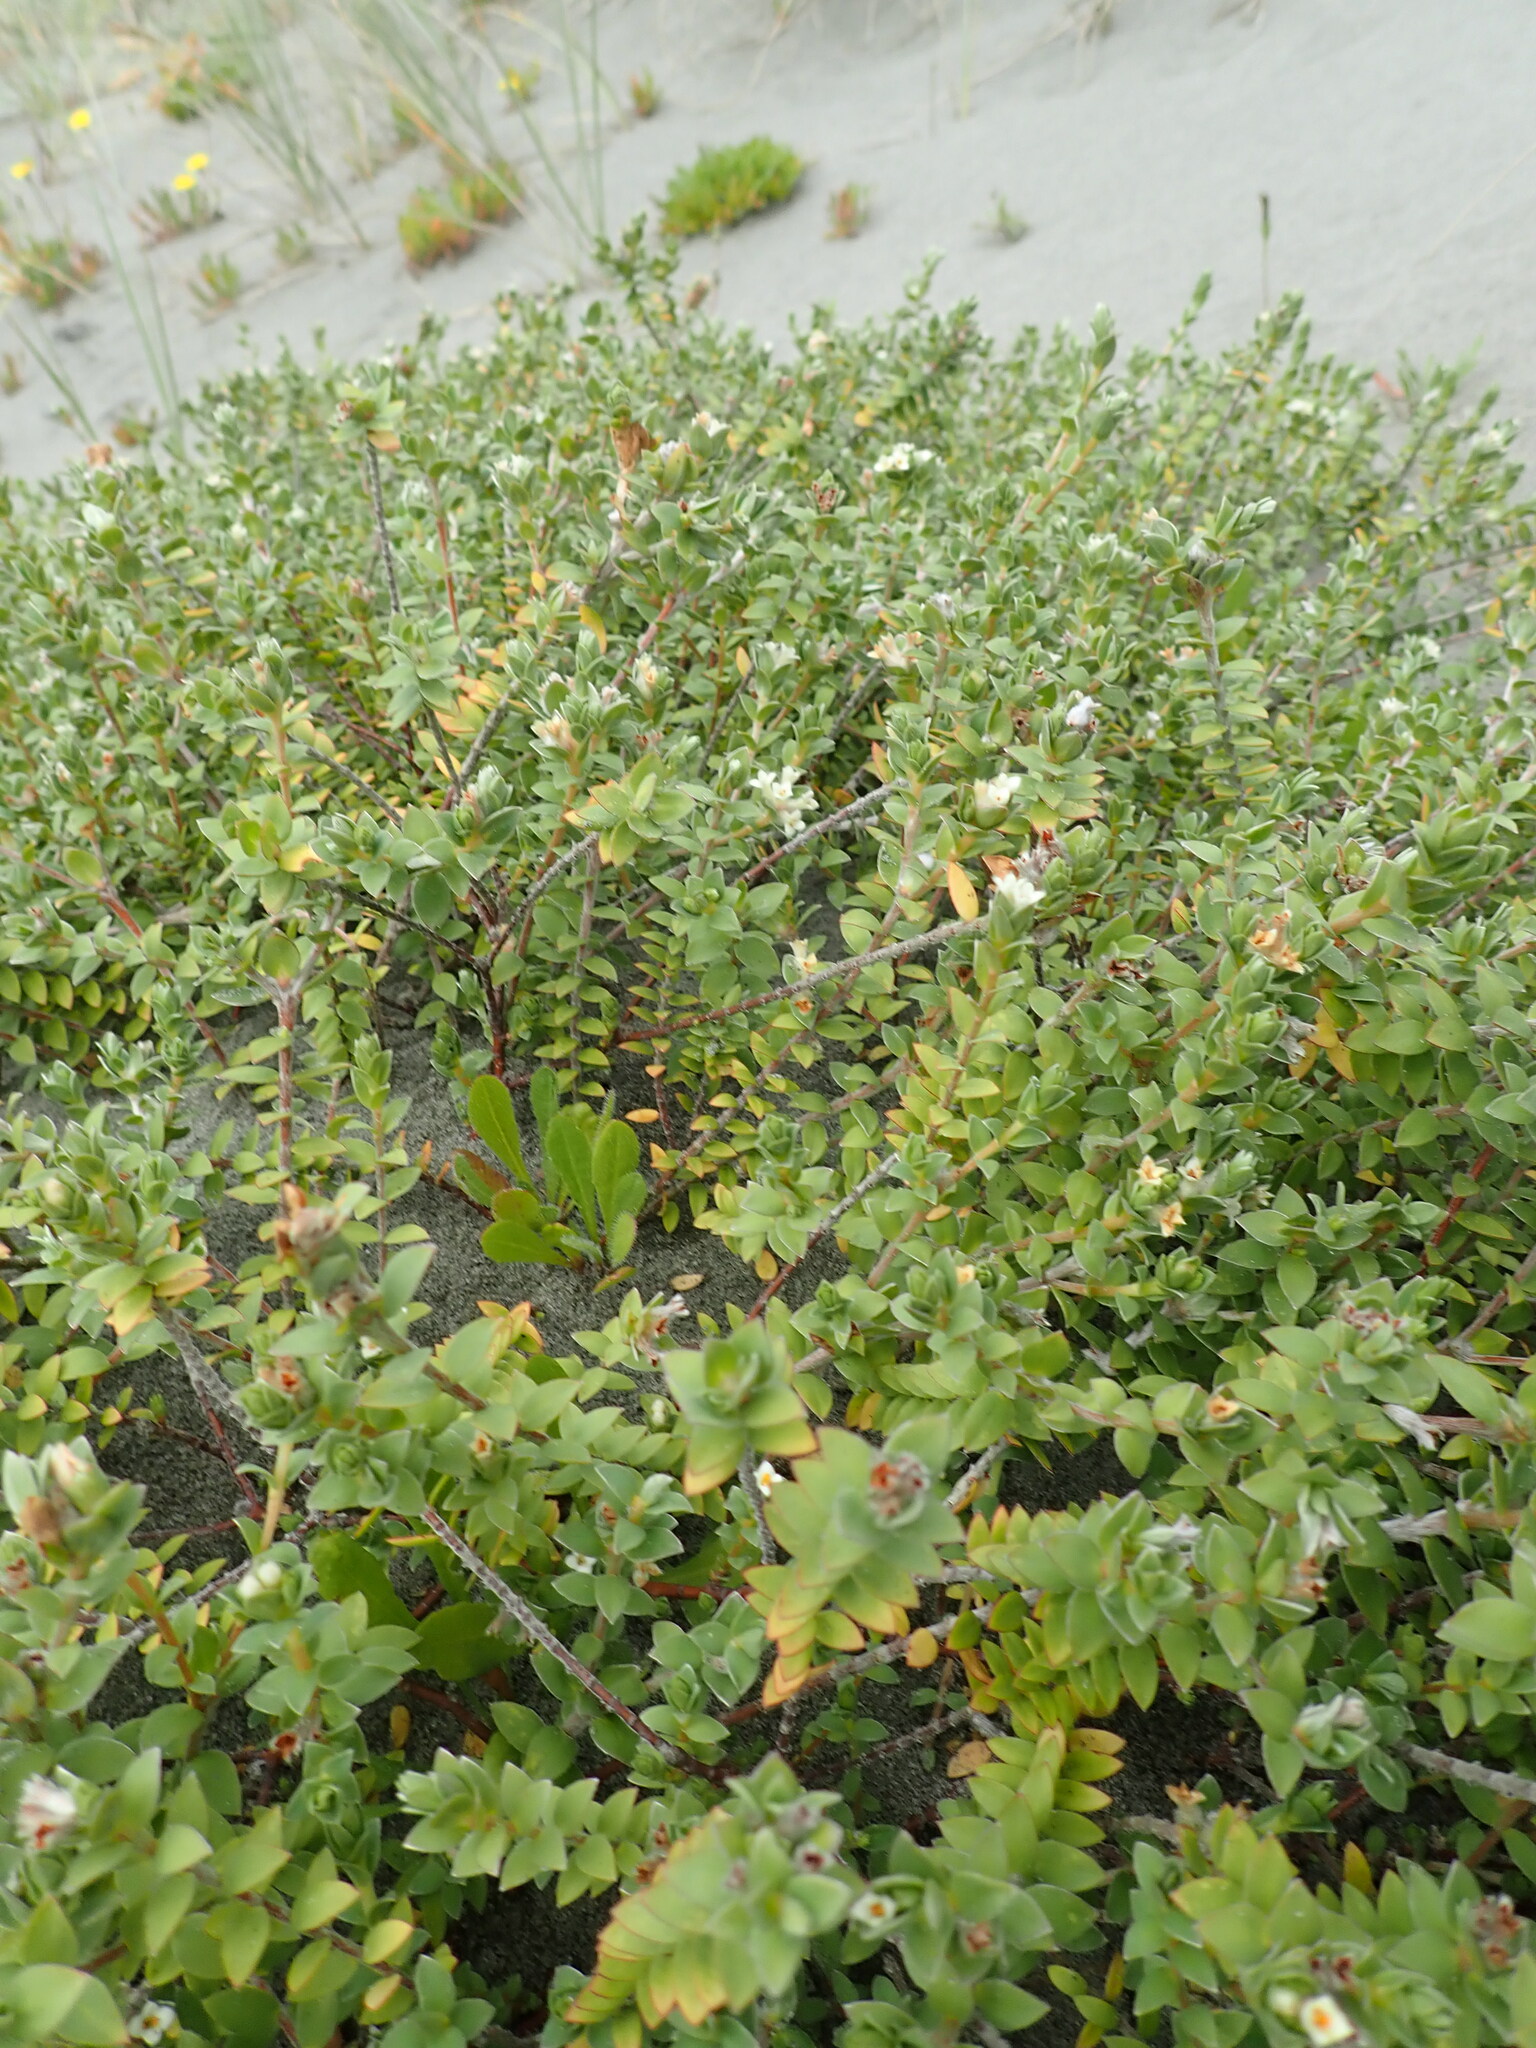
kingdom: Plantae
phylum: Tracheophyta
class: Magnoliopsida
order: Malvales
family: Thymelaeaceae
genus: Pimelea
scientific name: Pimelea villosa
